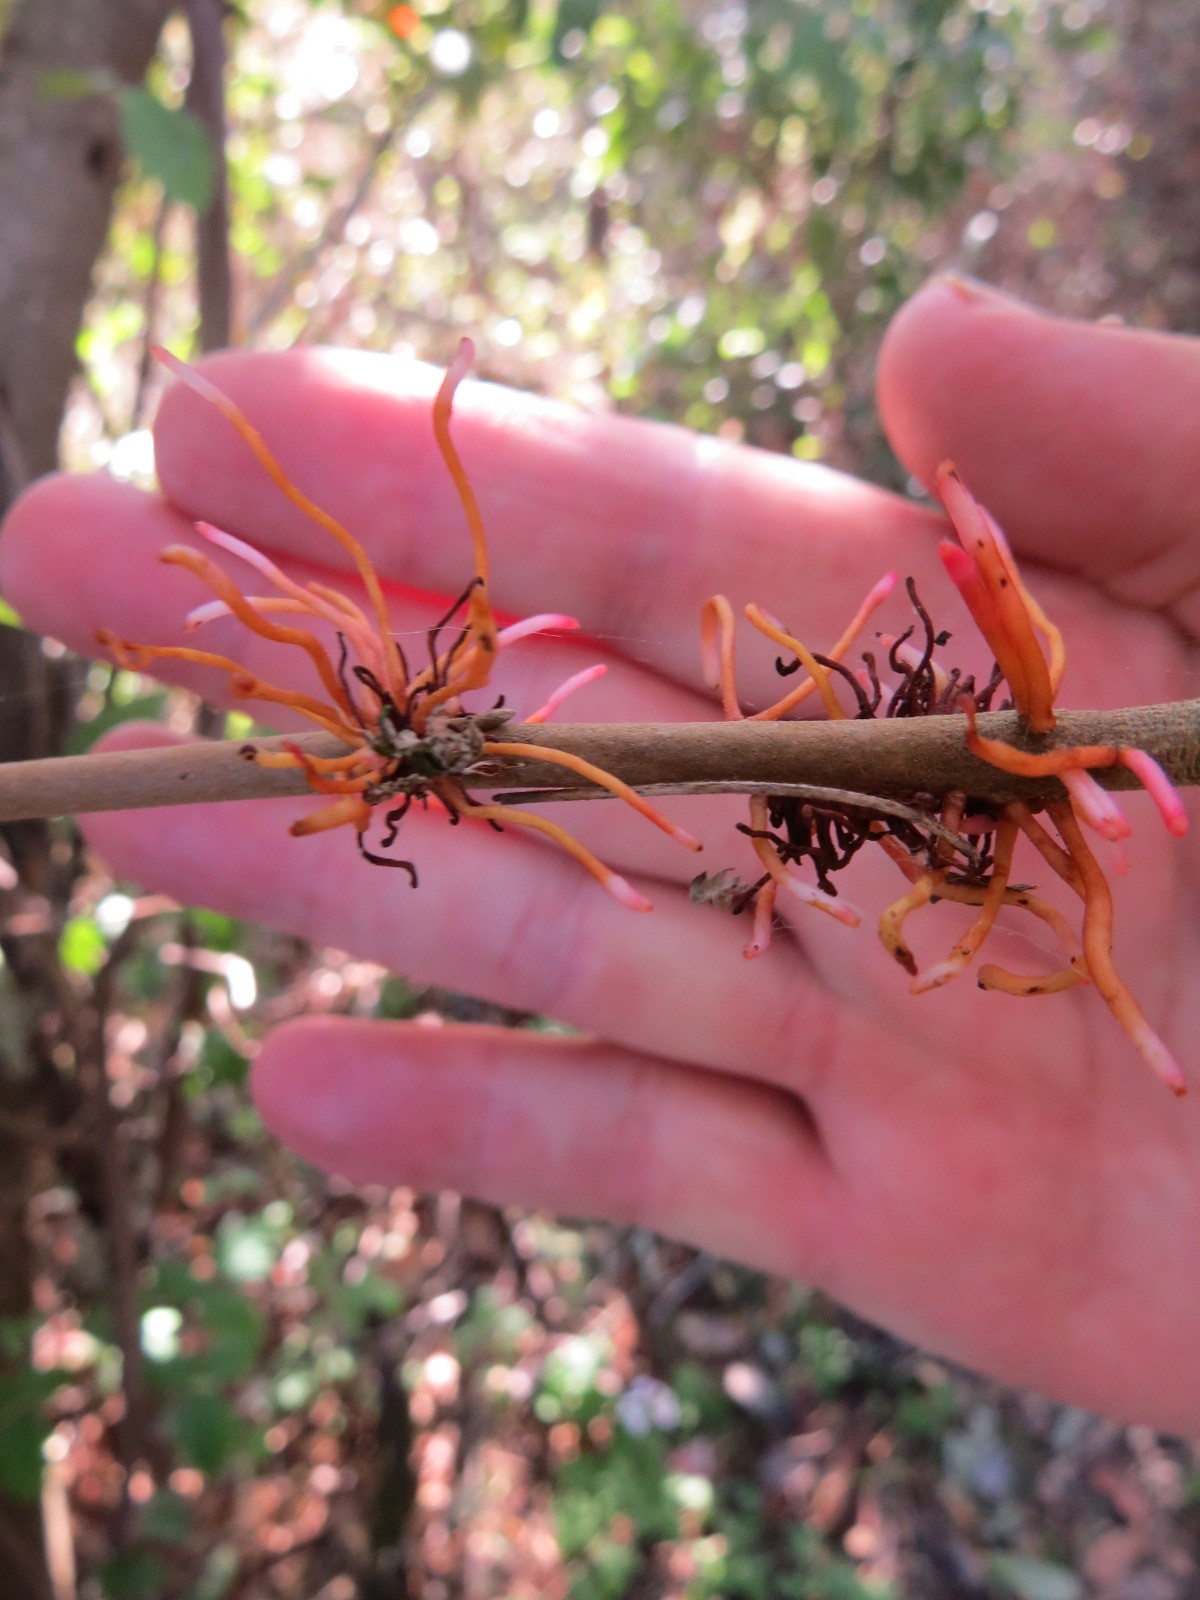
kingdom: Plantae
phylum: Tracheophyta
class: Magnoliopsida
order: Sapindales
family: Anacardiaceae
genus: Toxicodendron
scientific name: Toxicodendron diversilobum
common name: Pacific poison-oak
